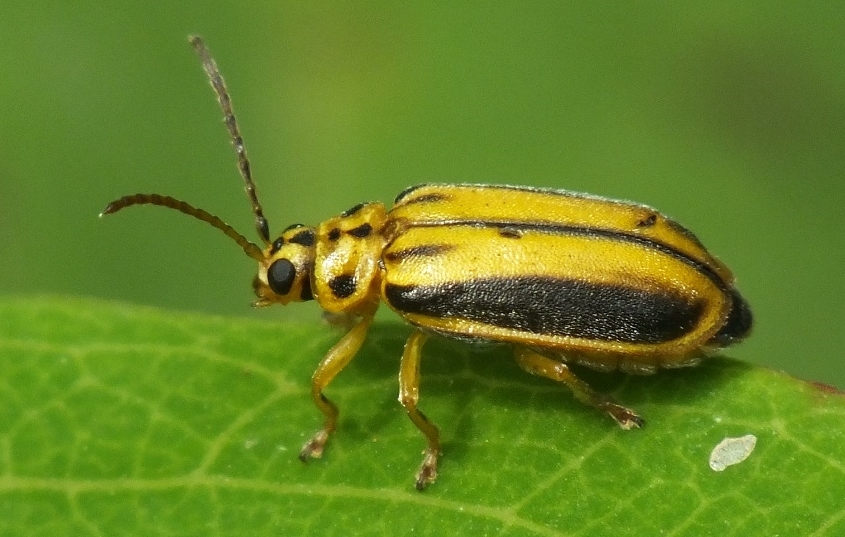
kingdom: Animalia
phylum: Arthropoda
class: Insecta
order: Coleoptera
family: Chrysomelidae
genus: Xanthogaleruca
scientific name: Xanthogaleruca luteola
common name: Elm leaf beetle
